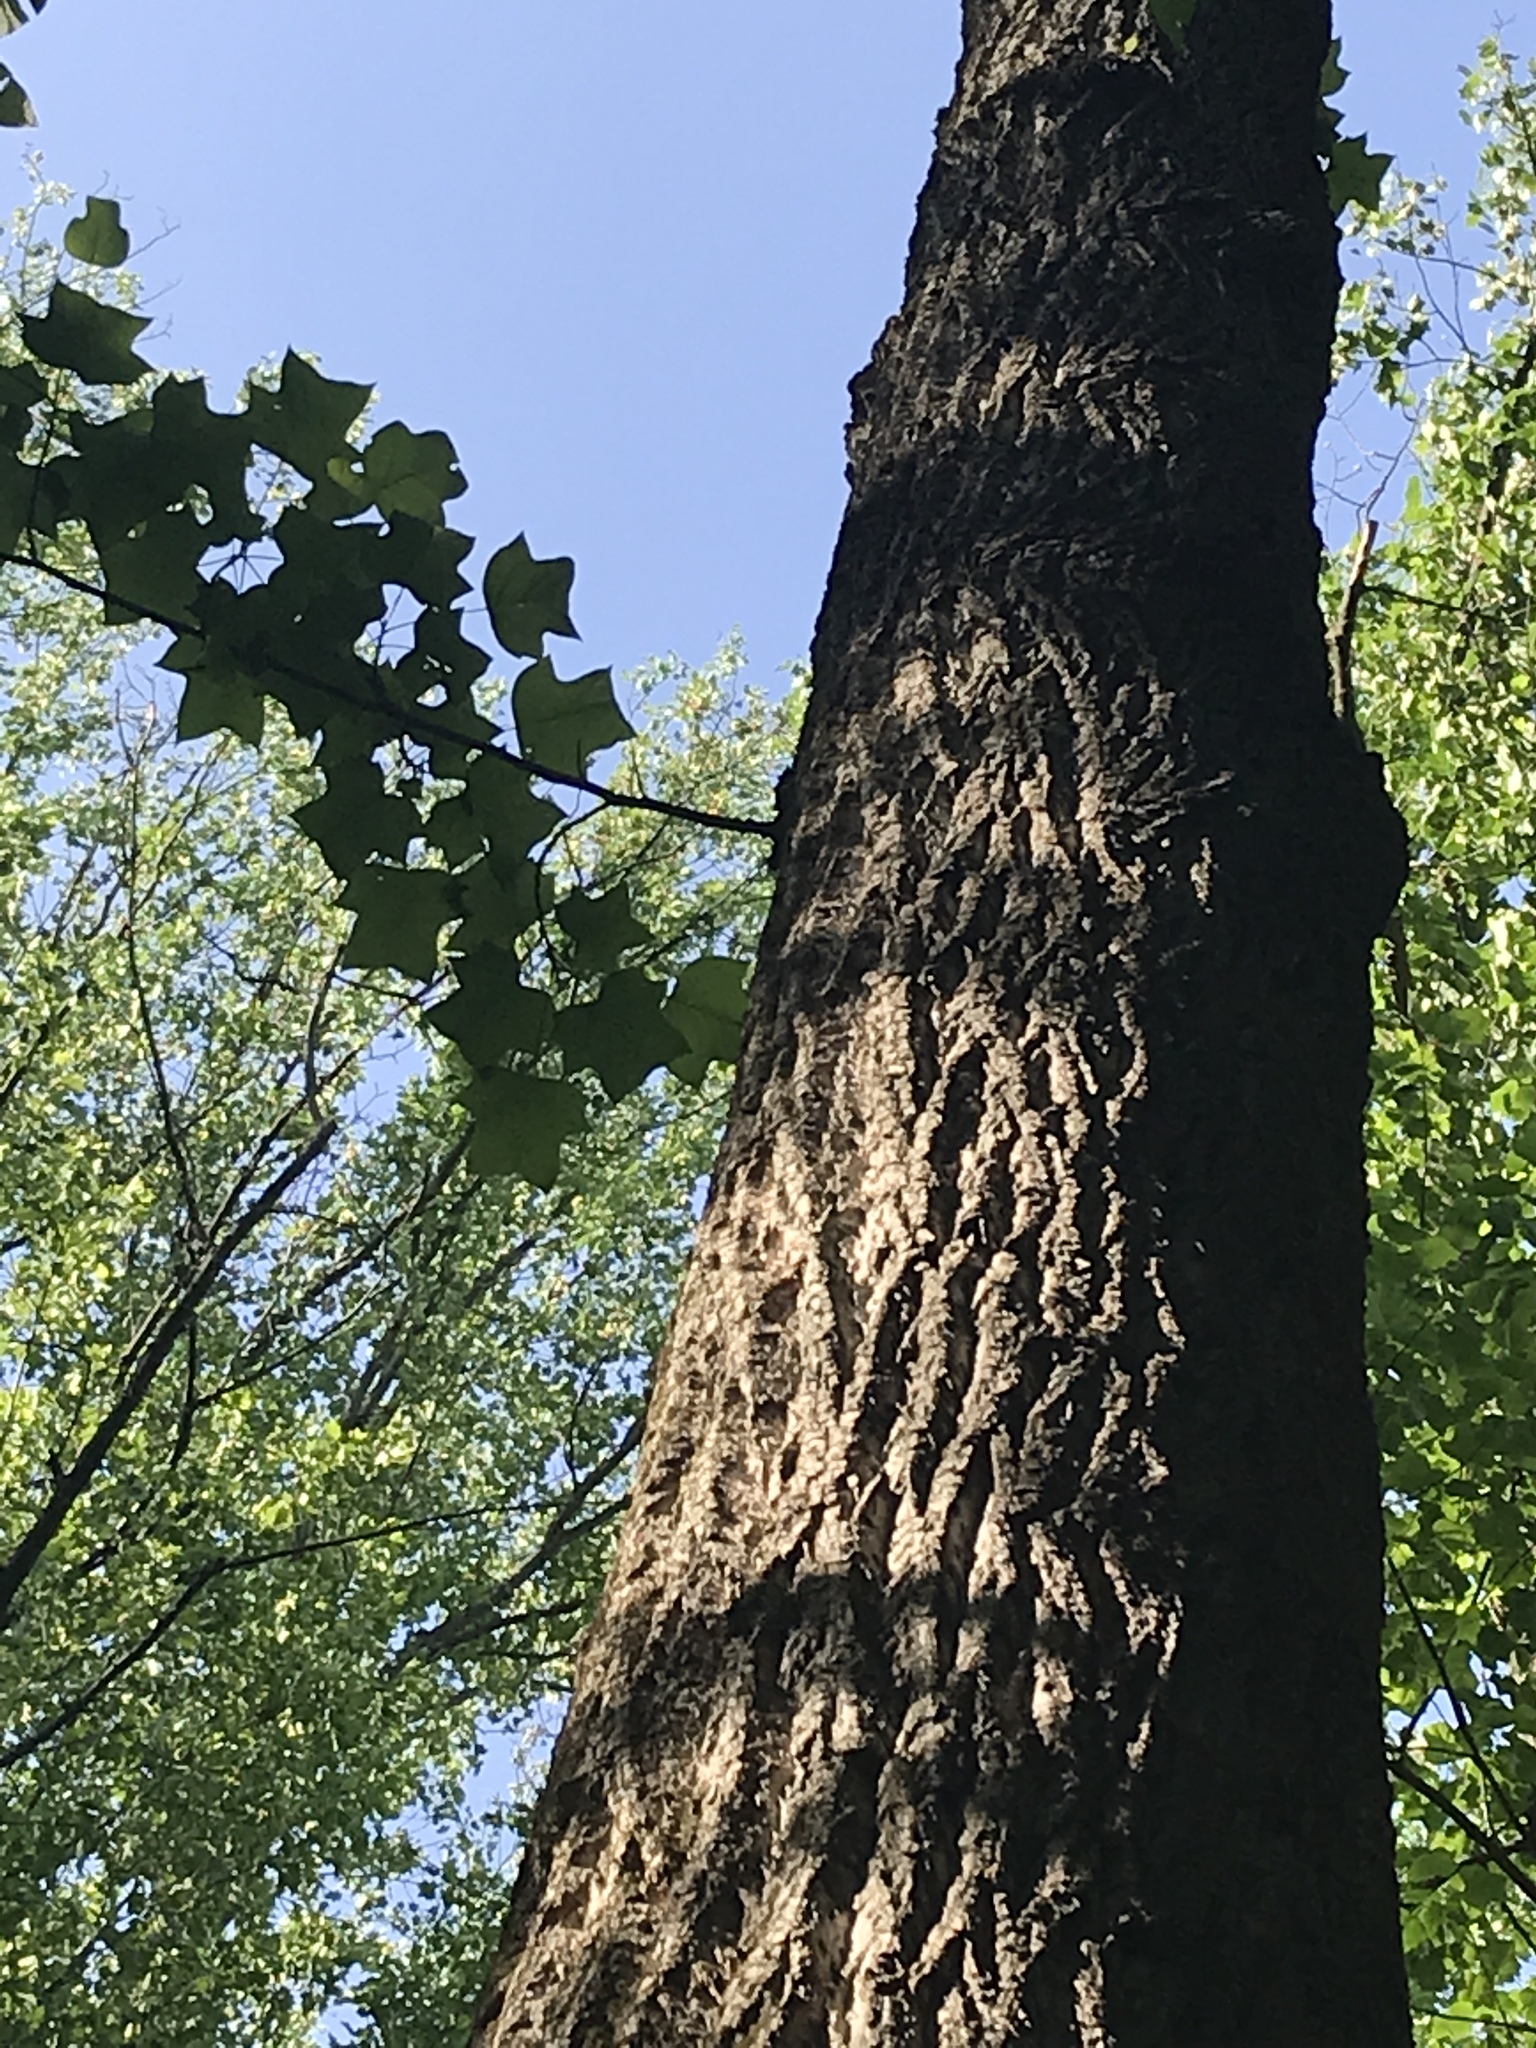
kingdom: Plantae
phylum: Tracheophyta
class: Magnoliopsida
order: Magnoliales
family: Magnoliaceae
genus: Liriodendron
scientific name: Liriodendron tulipifera
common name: Tulip tree
